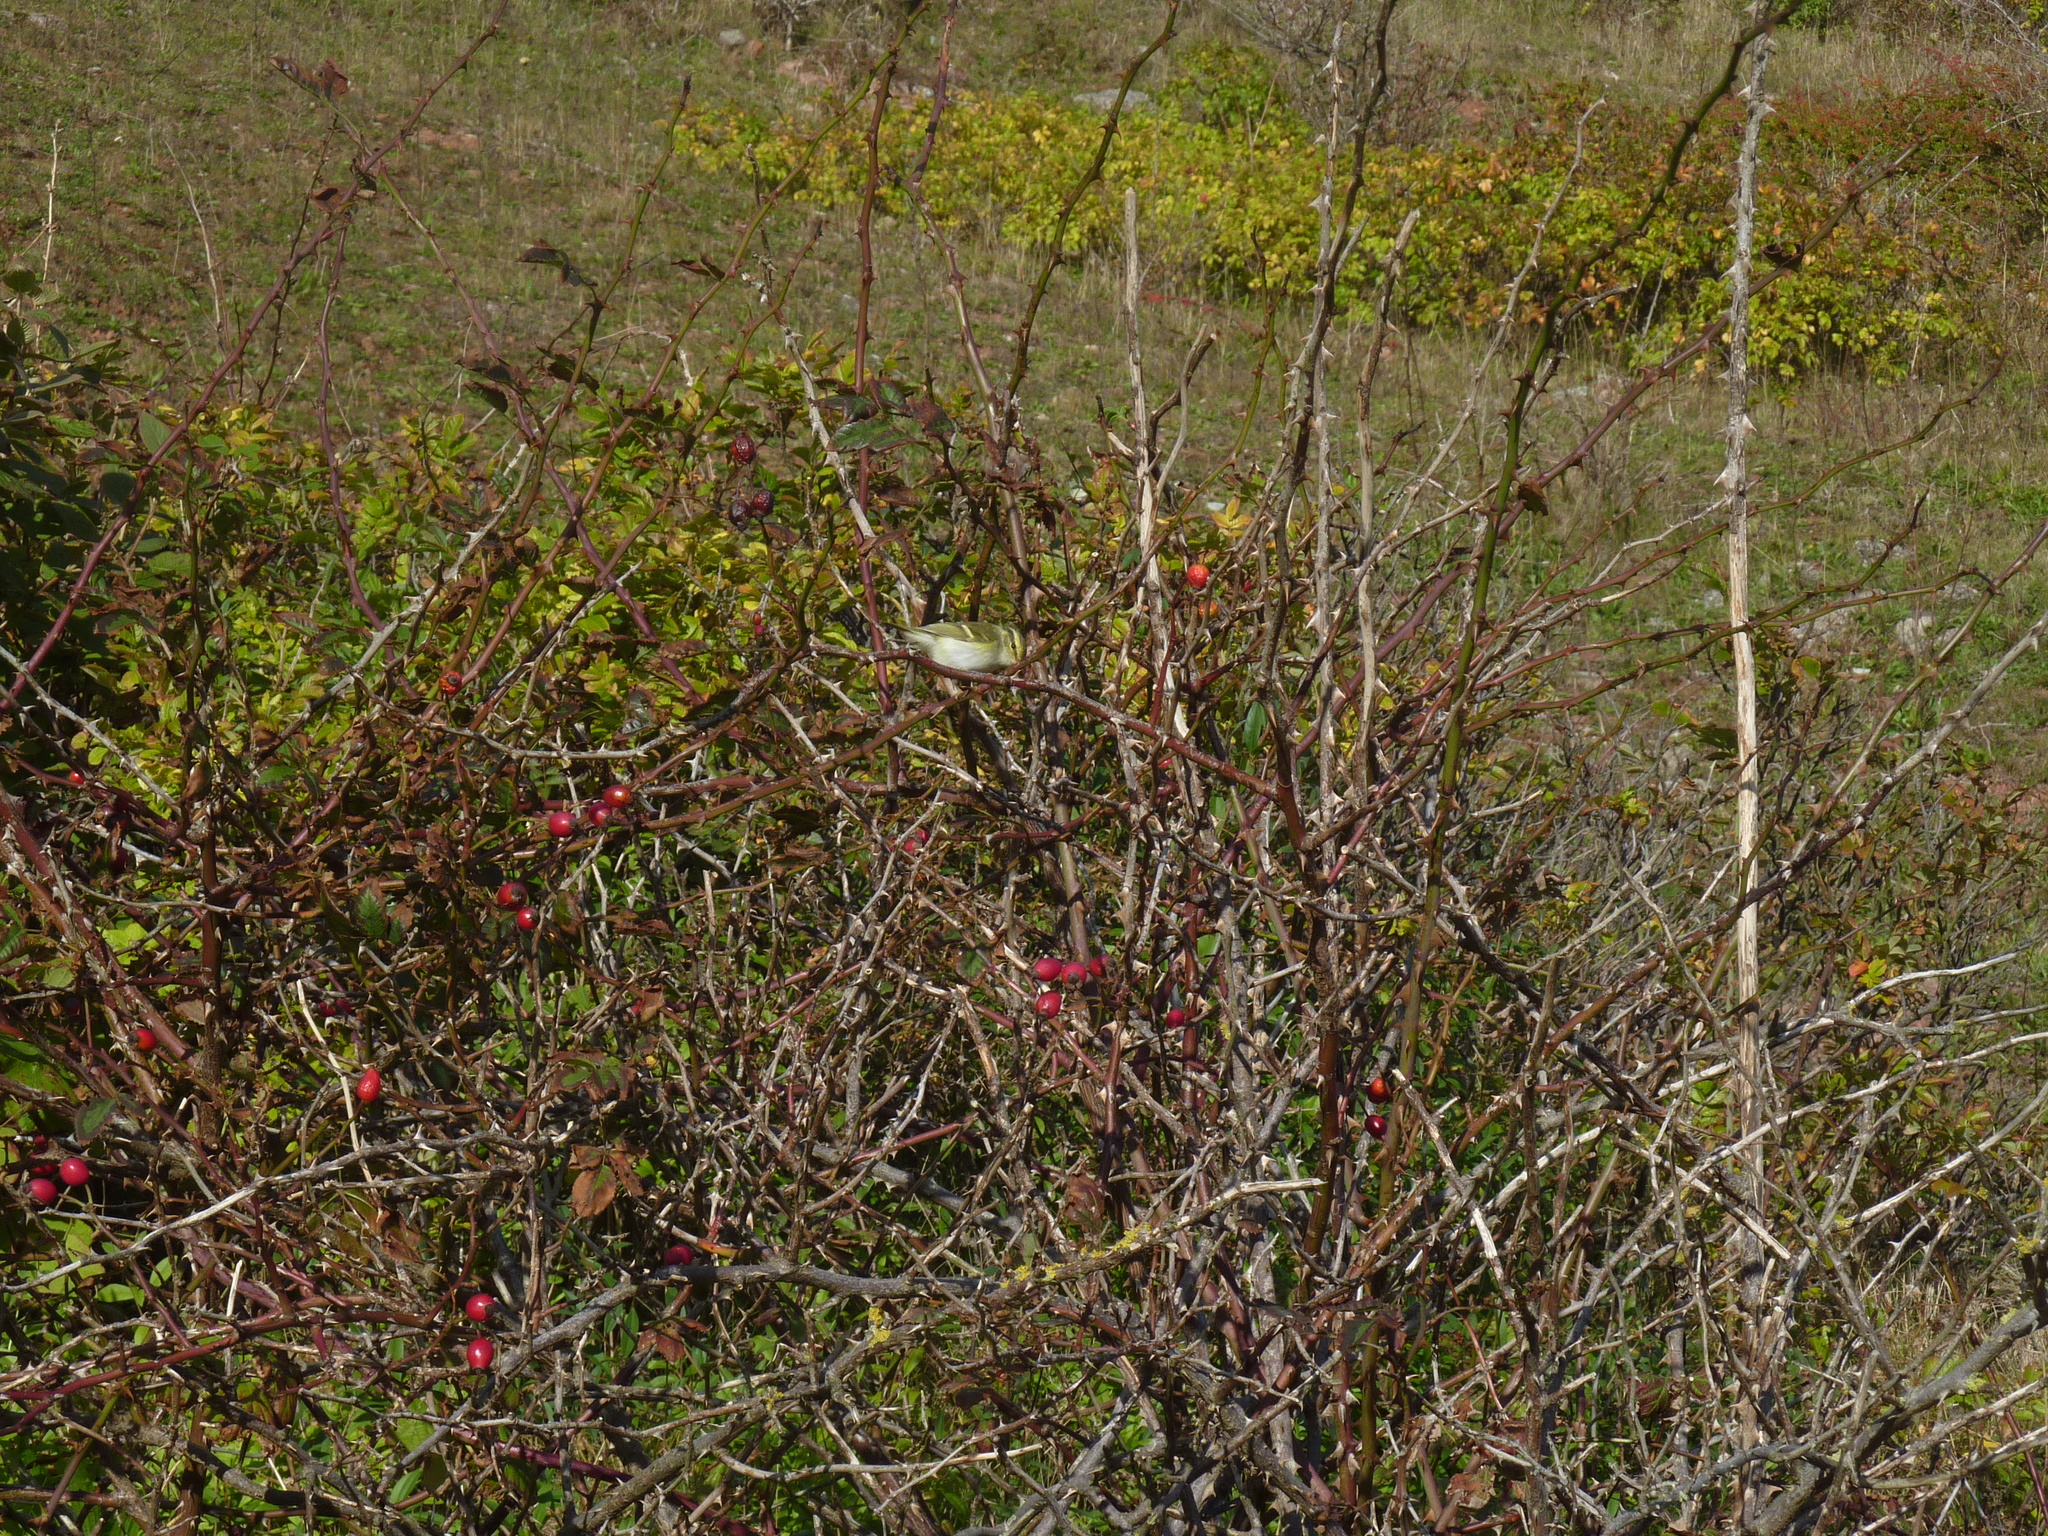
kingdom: Animalia
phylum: Chordata
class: Aves
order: Passeriformes
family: Phylloscopidae
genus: Phylloscopus
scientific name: Phylloscopus proregulus
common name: Pallas's leaf warbler
